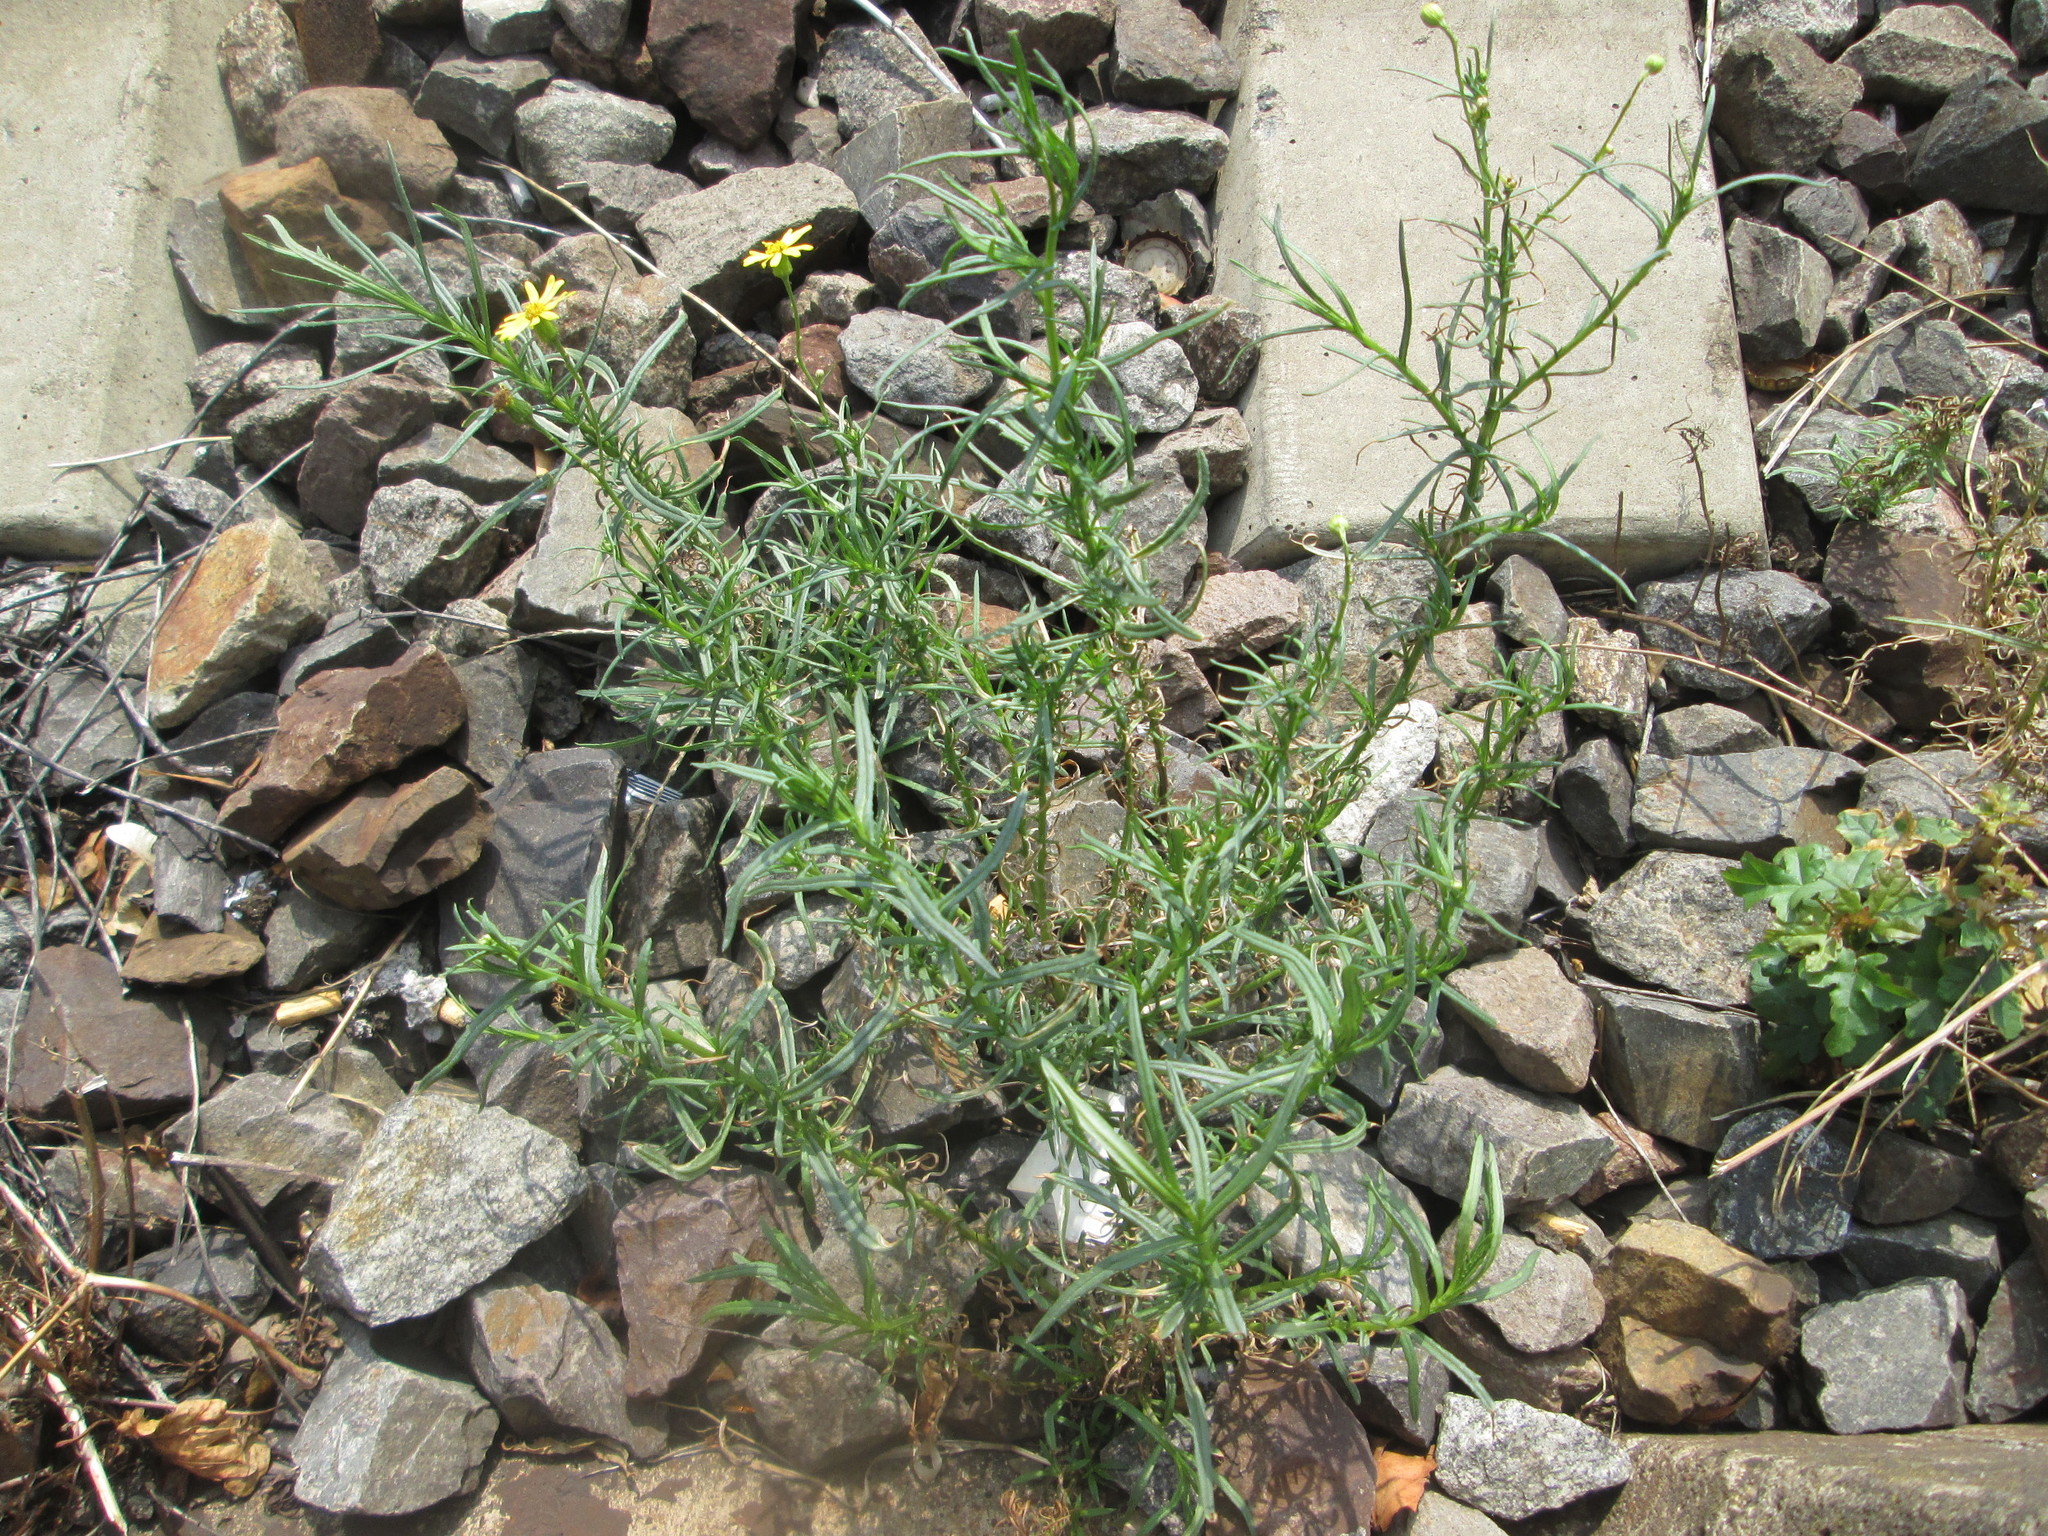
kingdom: Plantae
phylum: Tracheophyta
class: Magnoliopsida
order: Asterales
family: Asteraceae
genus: Senecio
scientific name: Senecio inaequidens
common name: Narrow-leaved ragwort
